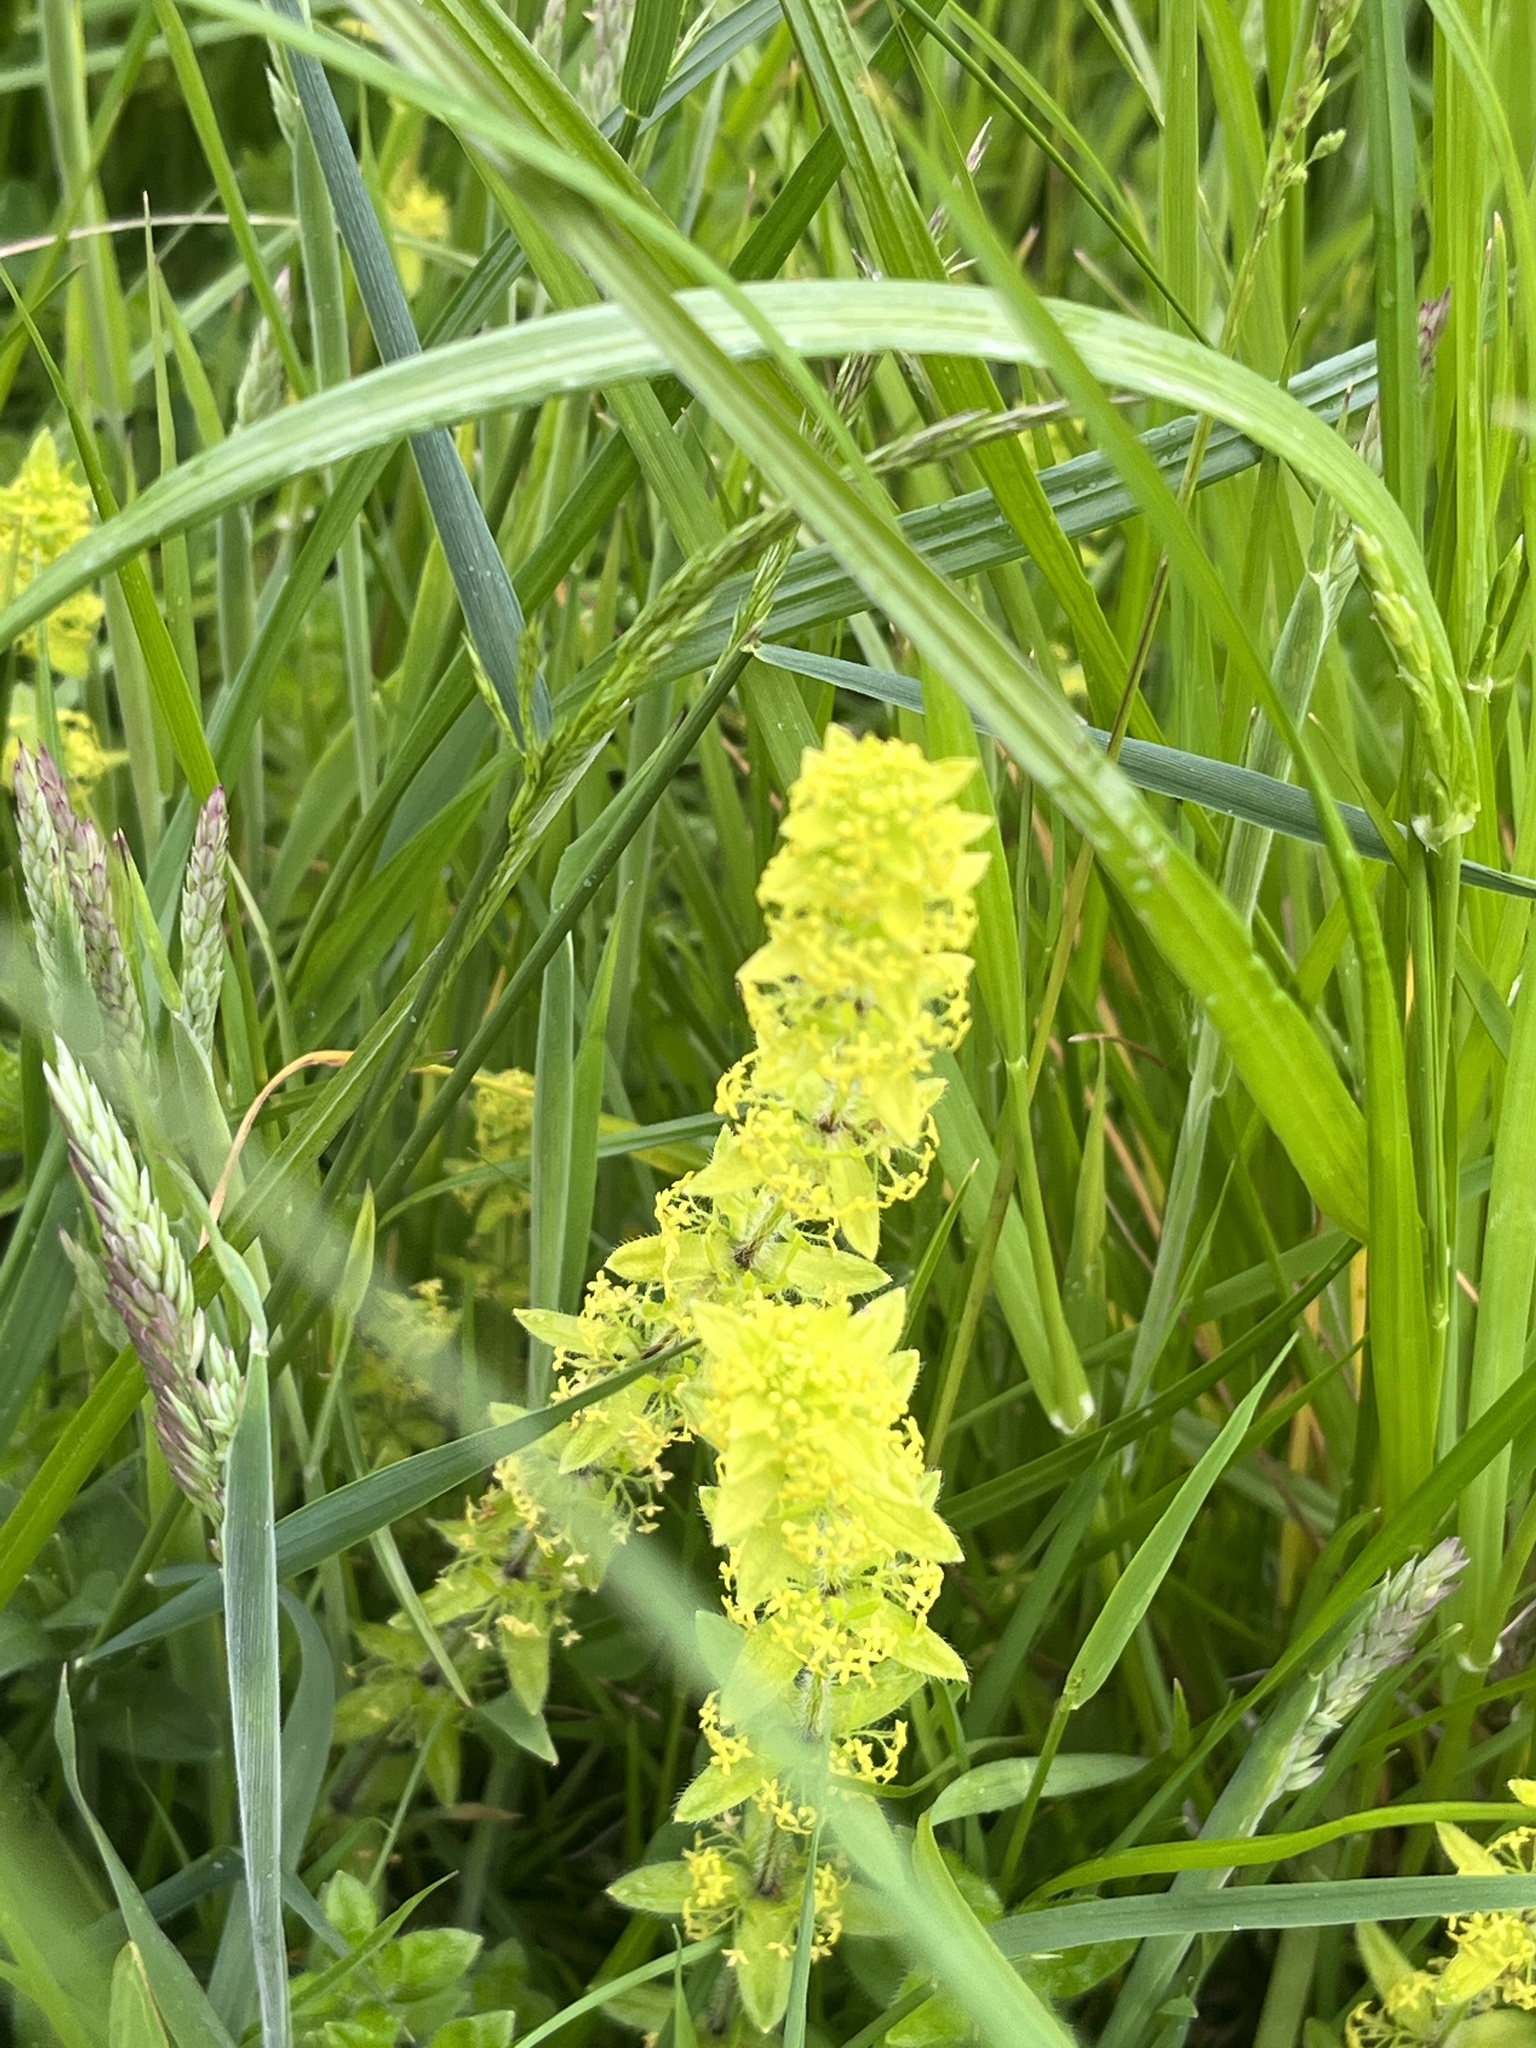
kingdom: Plantae
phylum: Tracheophyta
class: Magnoliopsida
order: Gentianales
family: Rubiaceae
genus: Cruciata
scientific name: Cruciata laevipes
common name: Crosswort
